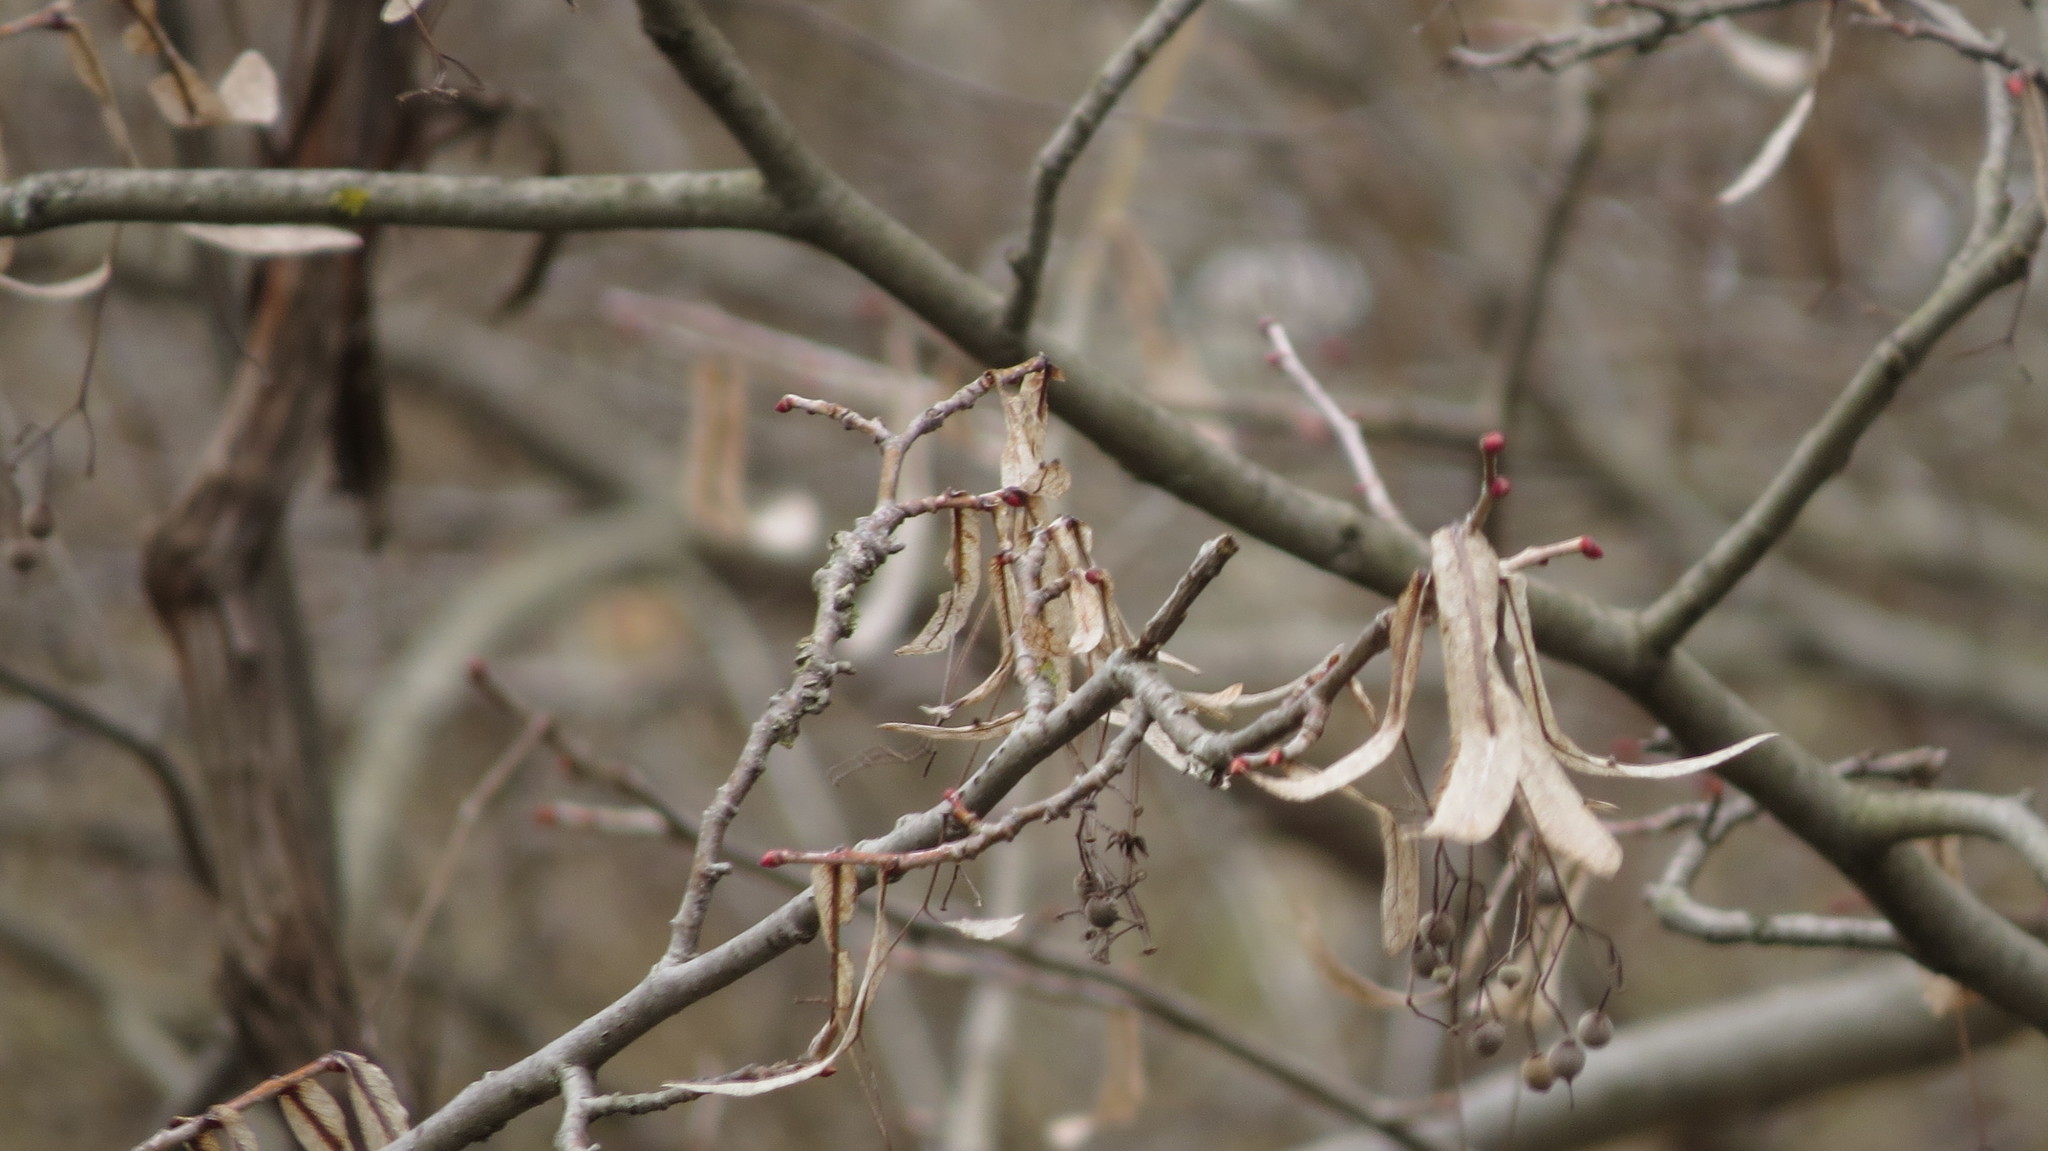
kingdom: Plantae
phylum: Tracheophyta
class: Magnoliopsida
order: Malvales
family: Malvaceae
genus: Tilia
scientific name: Tilia americana
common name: Basswood
